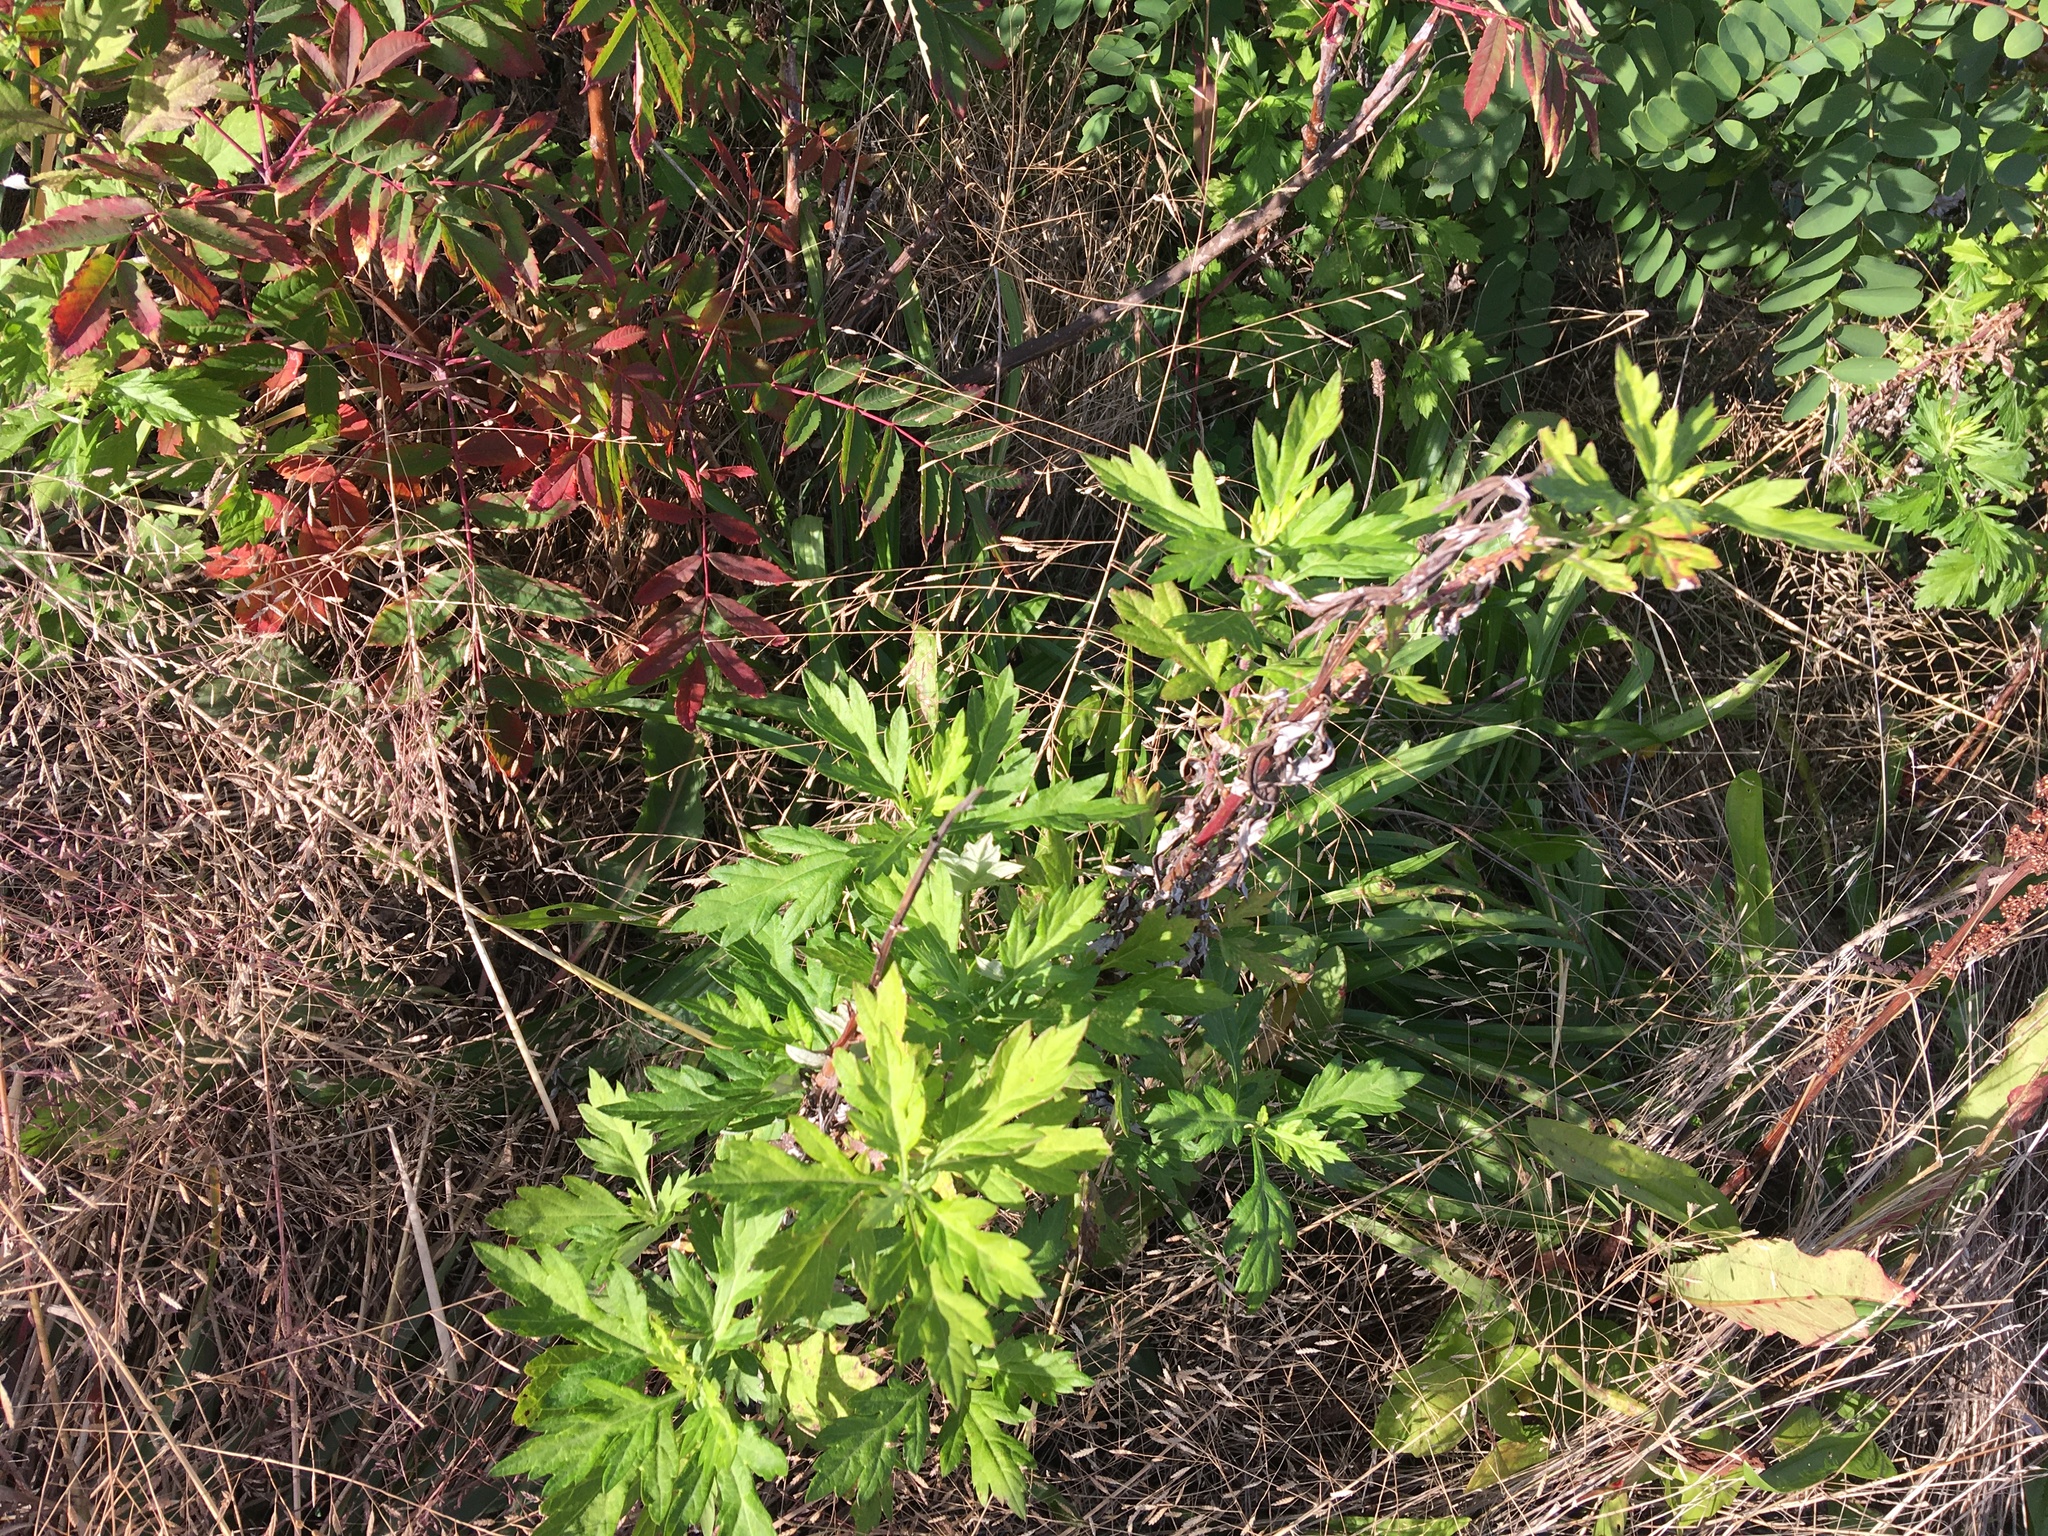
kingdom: Plantae
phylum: Tracheophyta
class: Magnoliopsida
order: Asterales
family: Asteraceae
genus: Artemisia
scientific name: Artemisia vulgaris
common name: Mugwort
